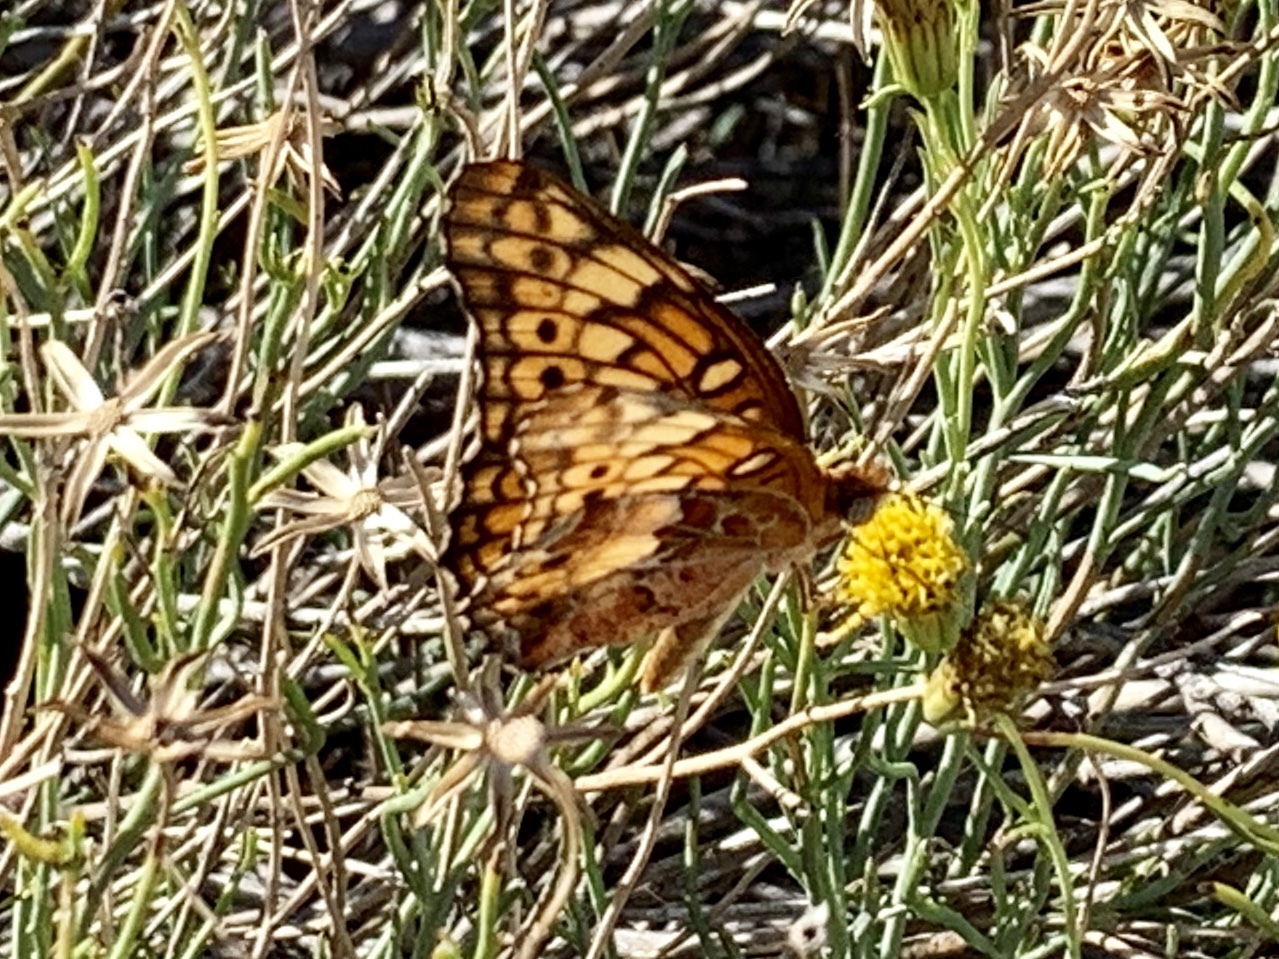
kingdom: Animalia
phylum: Arthropoda
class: Insecta
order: Lepidoptera
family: Nymphalidae
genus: Euptoieta
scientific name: Euptoieta claudia
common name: Variegated fritillary
